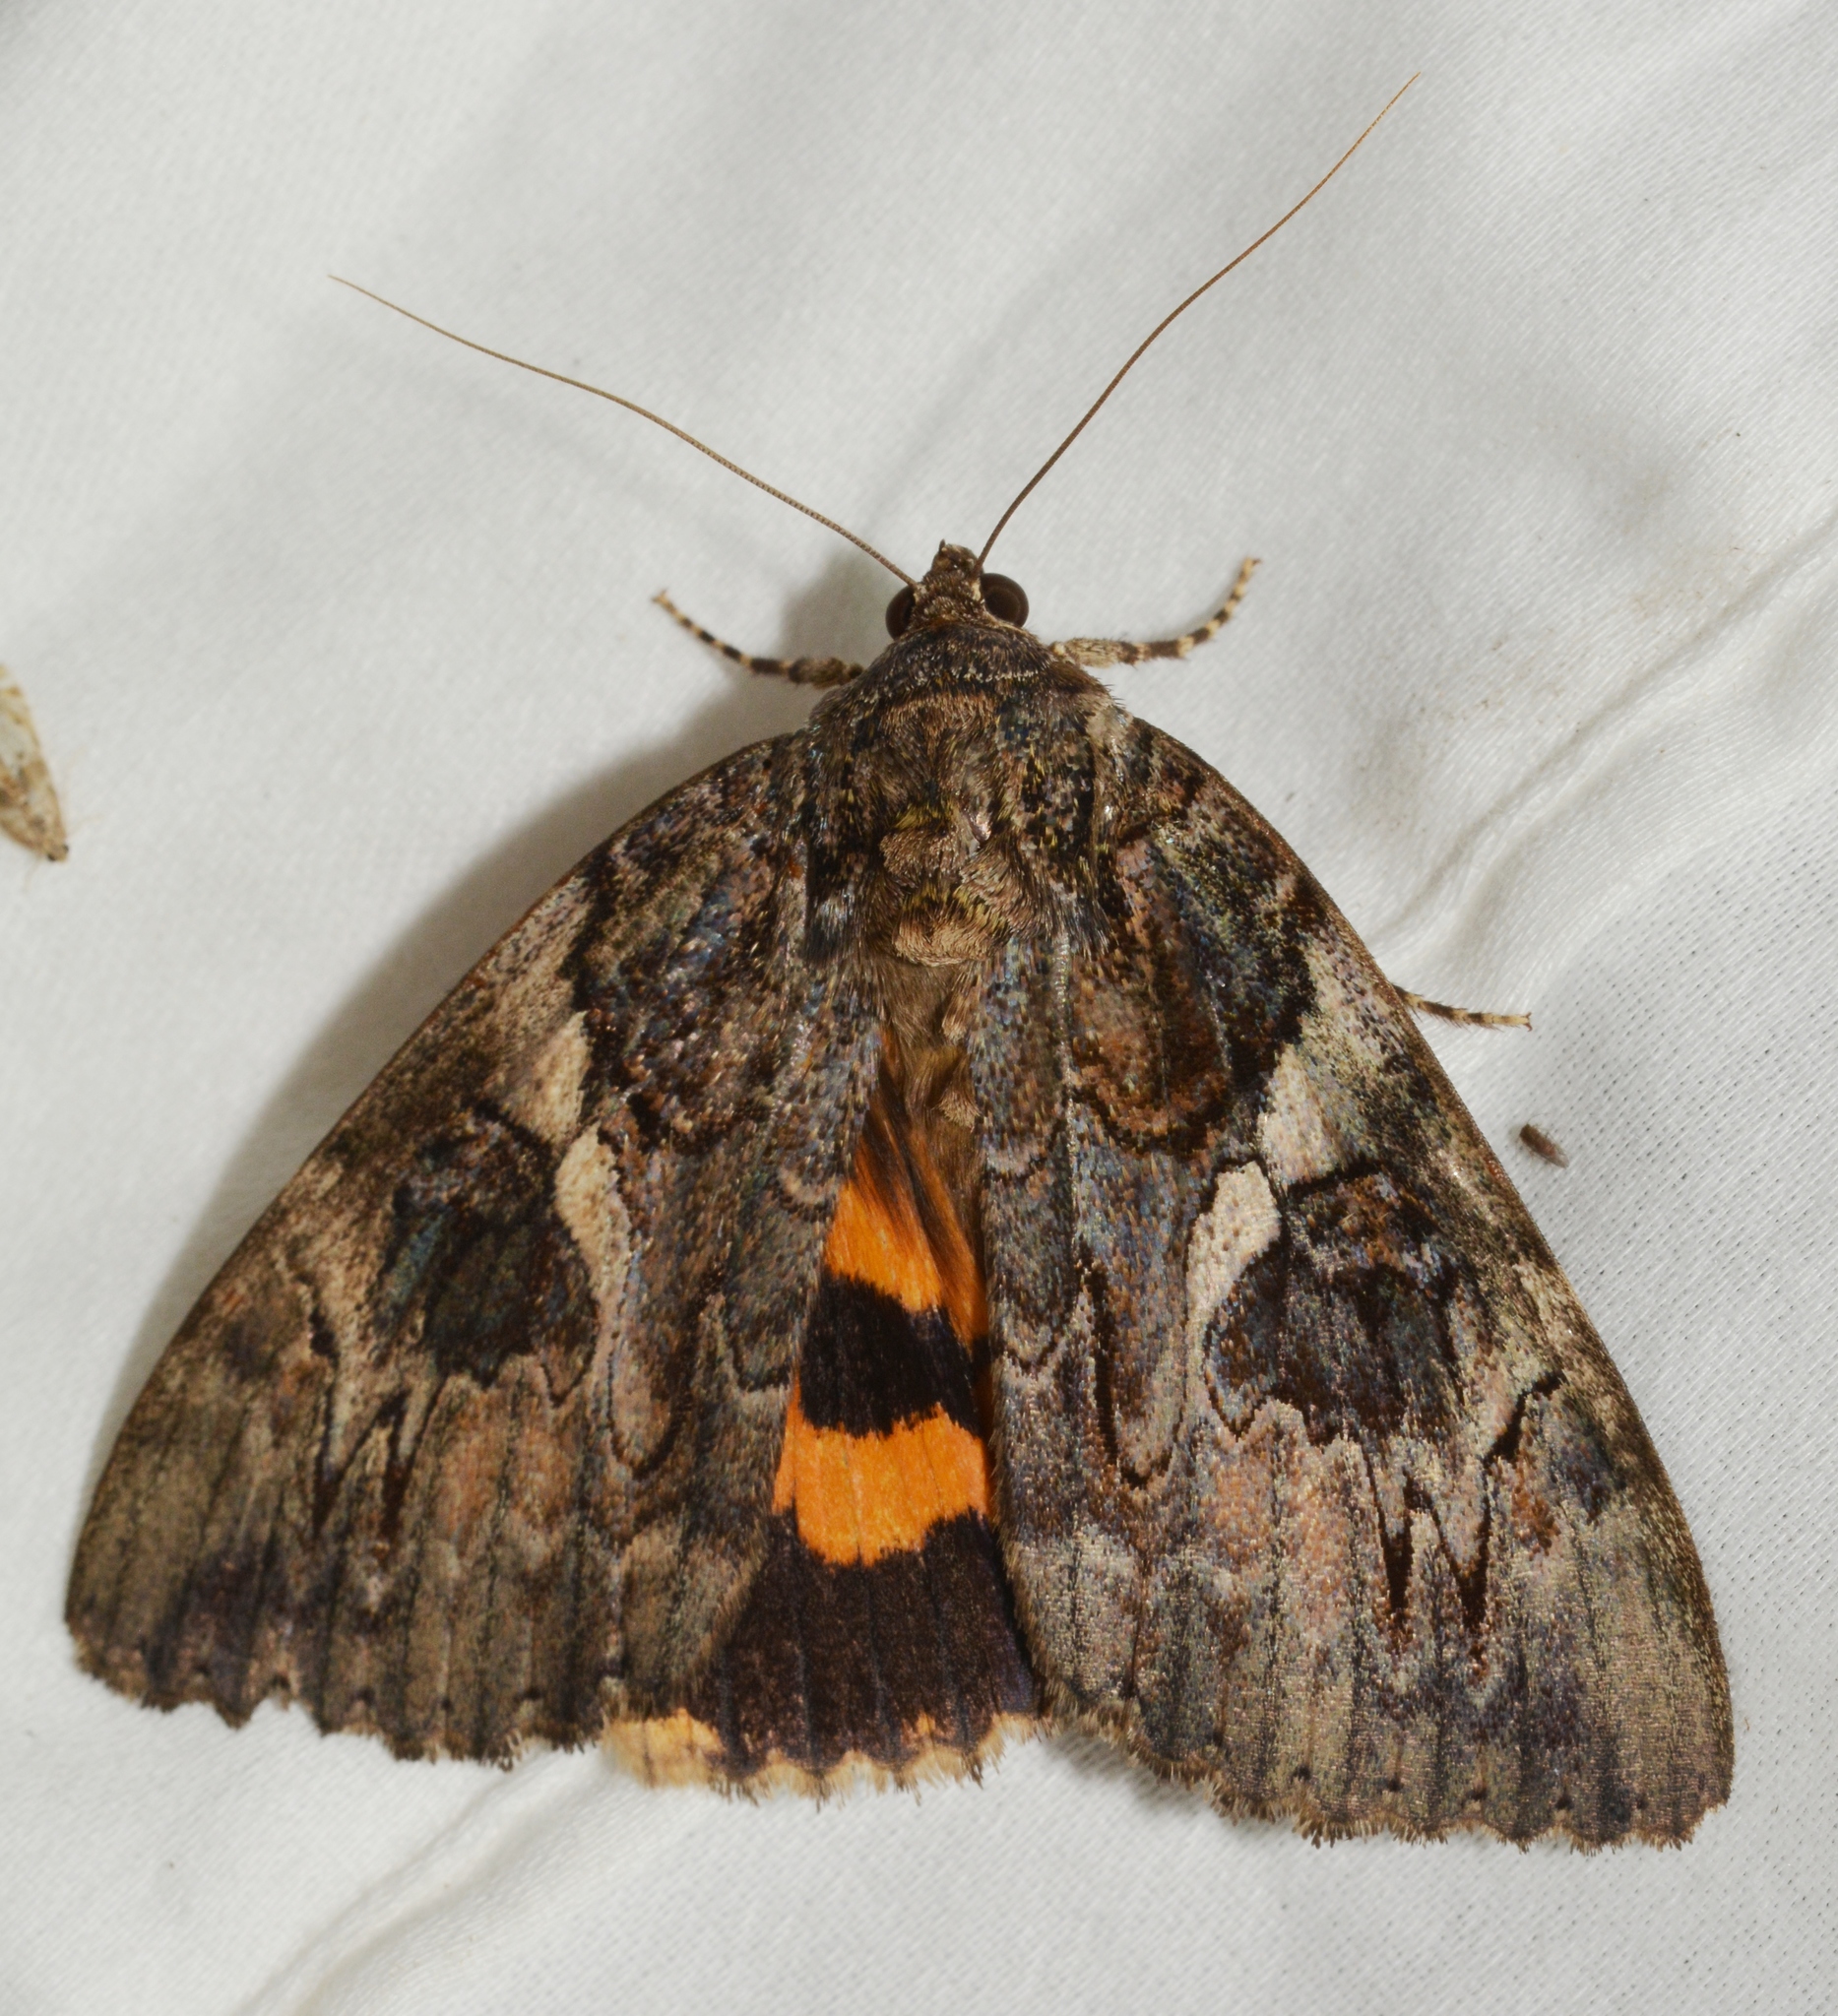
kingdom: Animalia
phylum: Arthropoda
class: Insecta
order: Lepidoptera
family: Erebidae
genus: Catocala
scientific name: Catocala piatrix
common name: The penitent underwing
